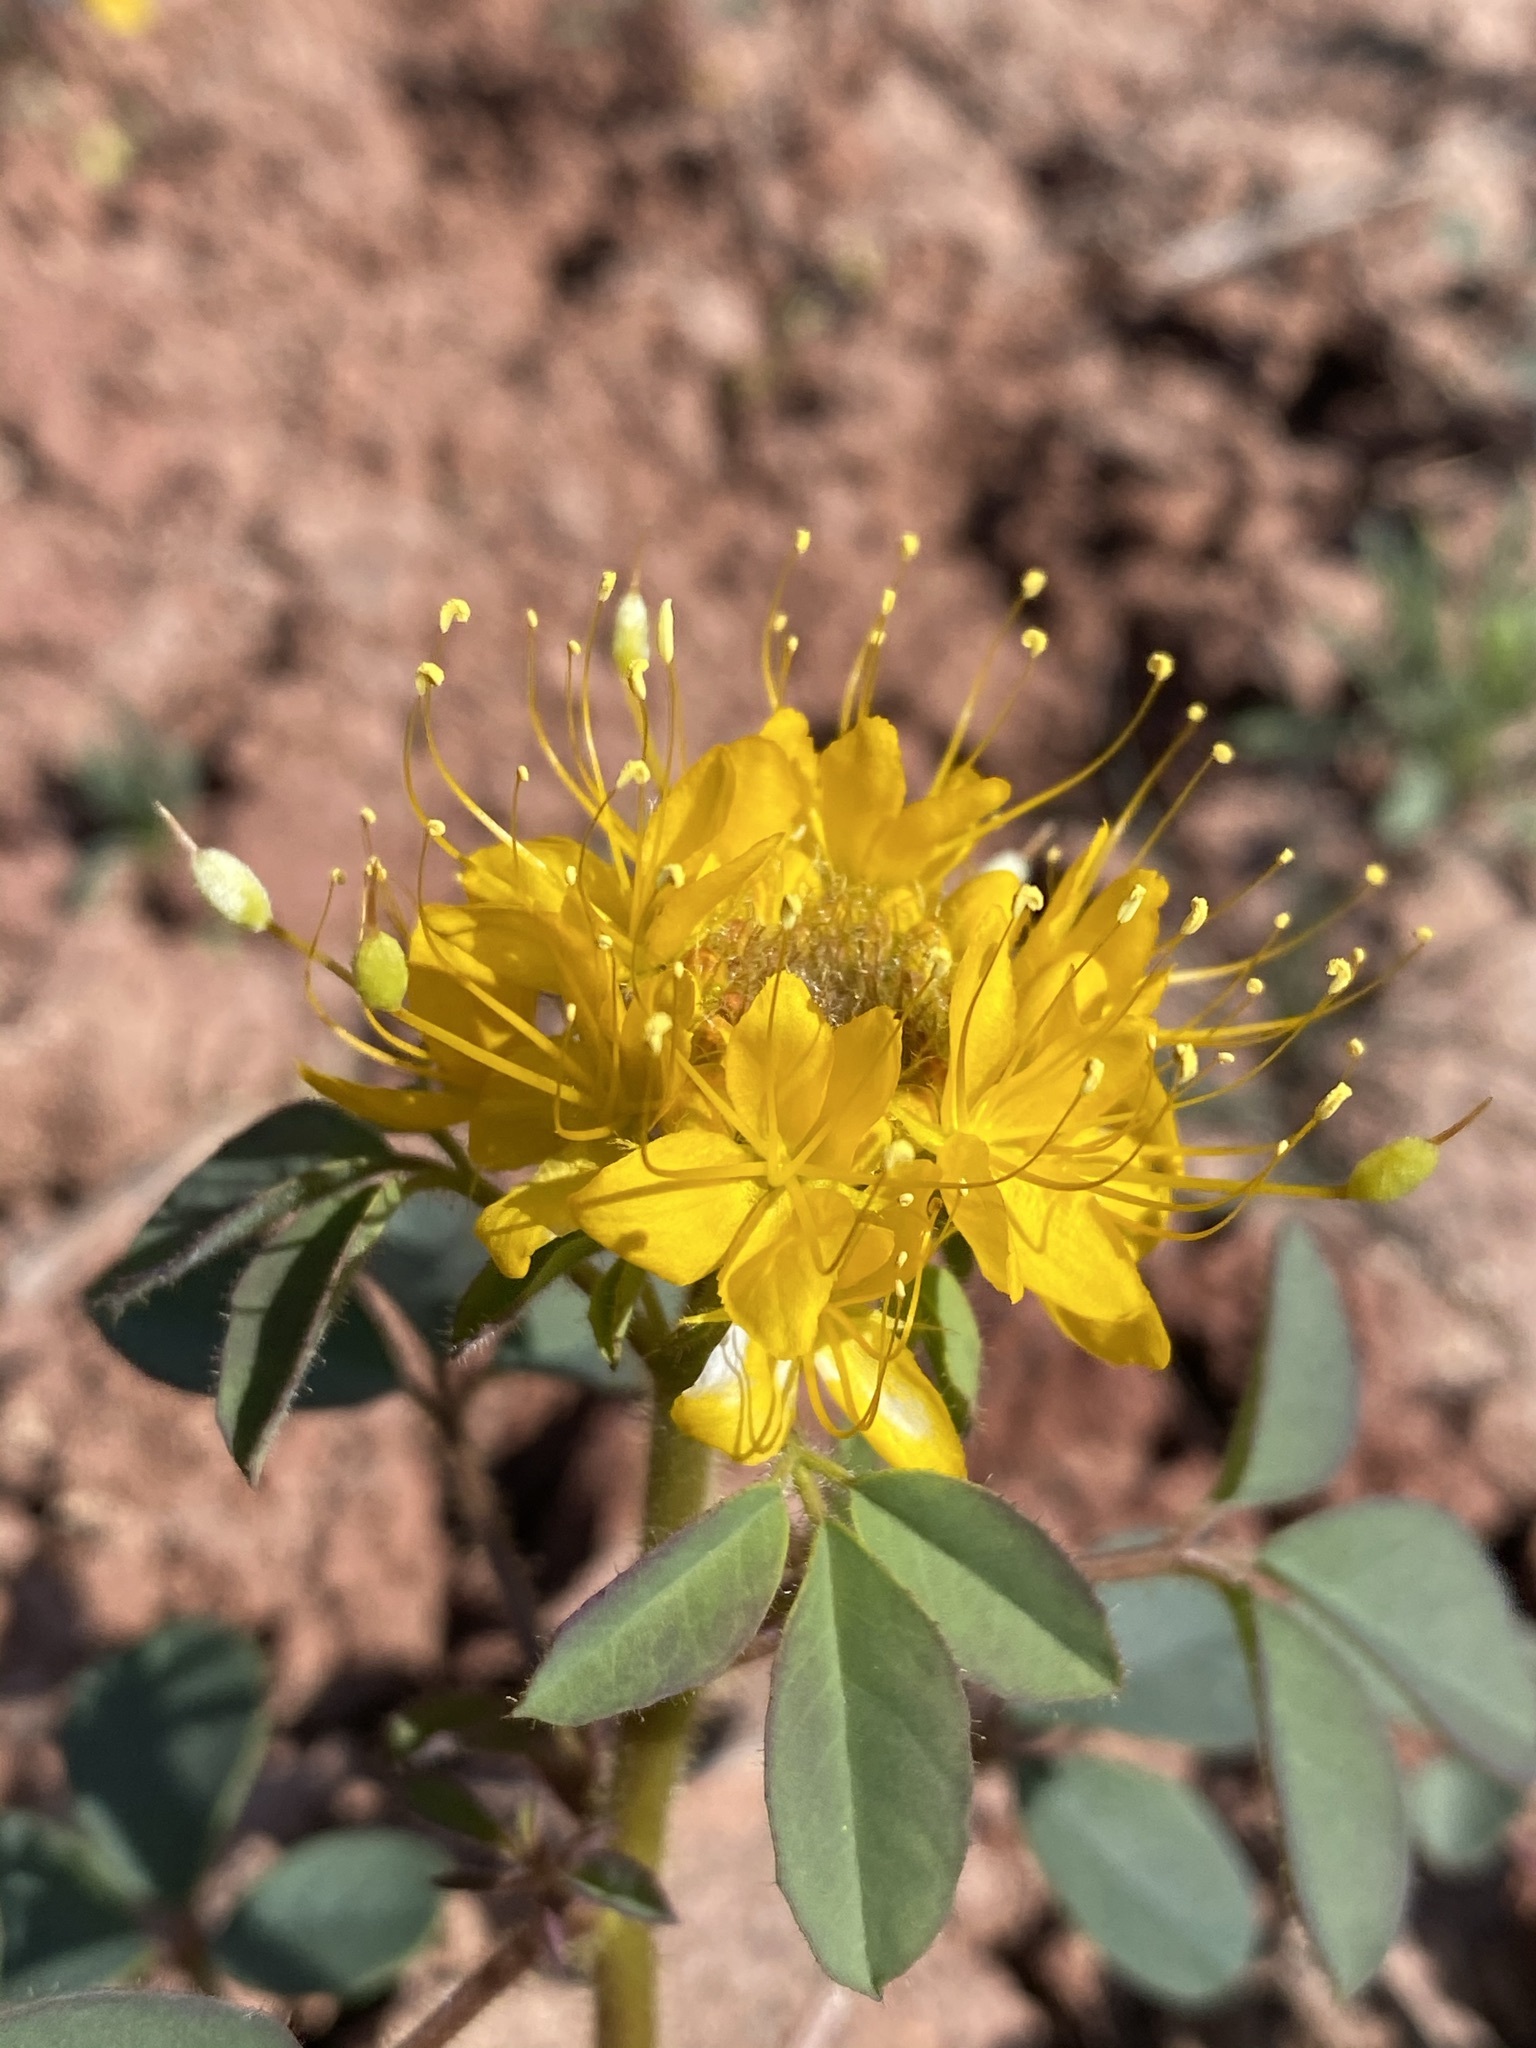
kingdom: Plantae
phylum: Tracheophyta
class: Magnoliopsida
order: Brassicales
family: Cleomaceae
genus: Cleomella
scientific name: Cleomella platycarpa
